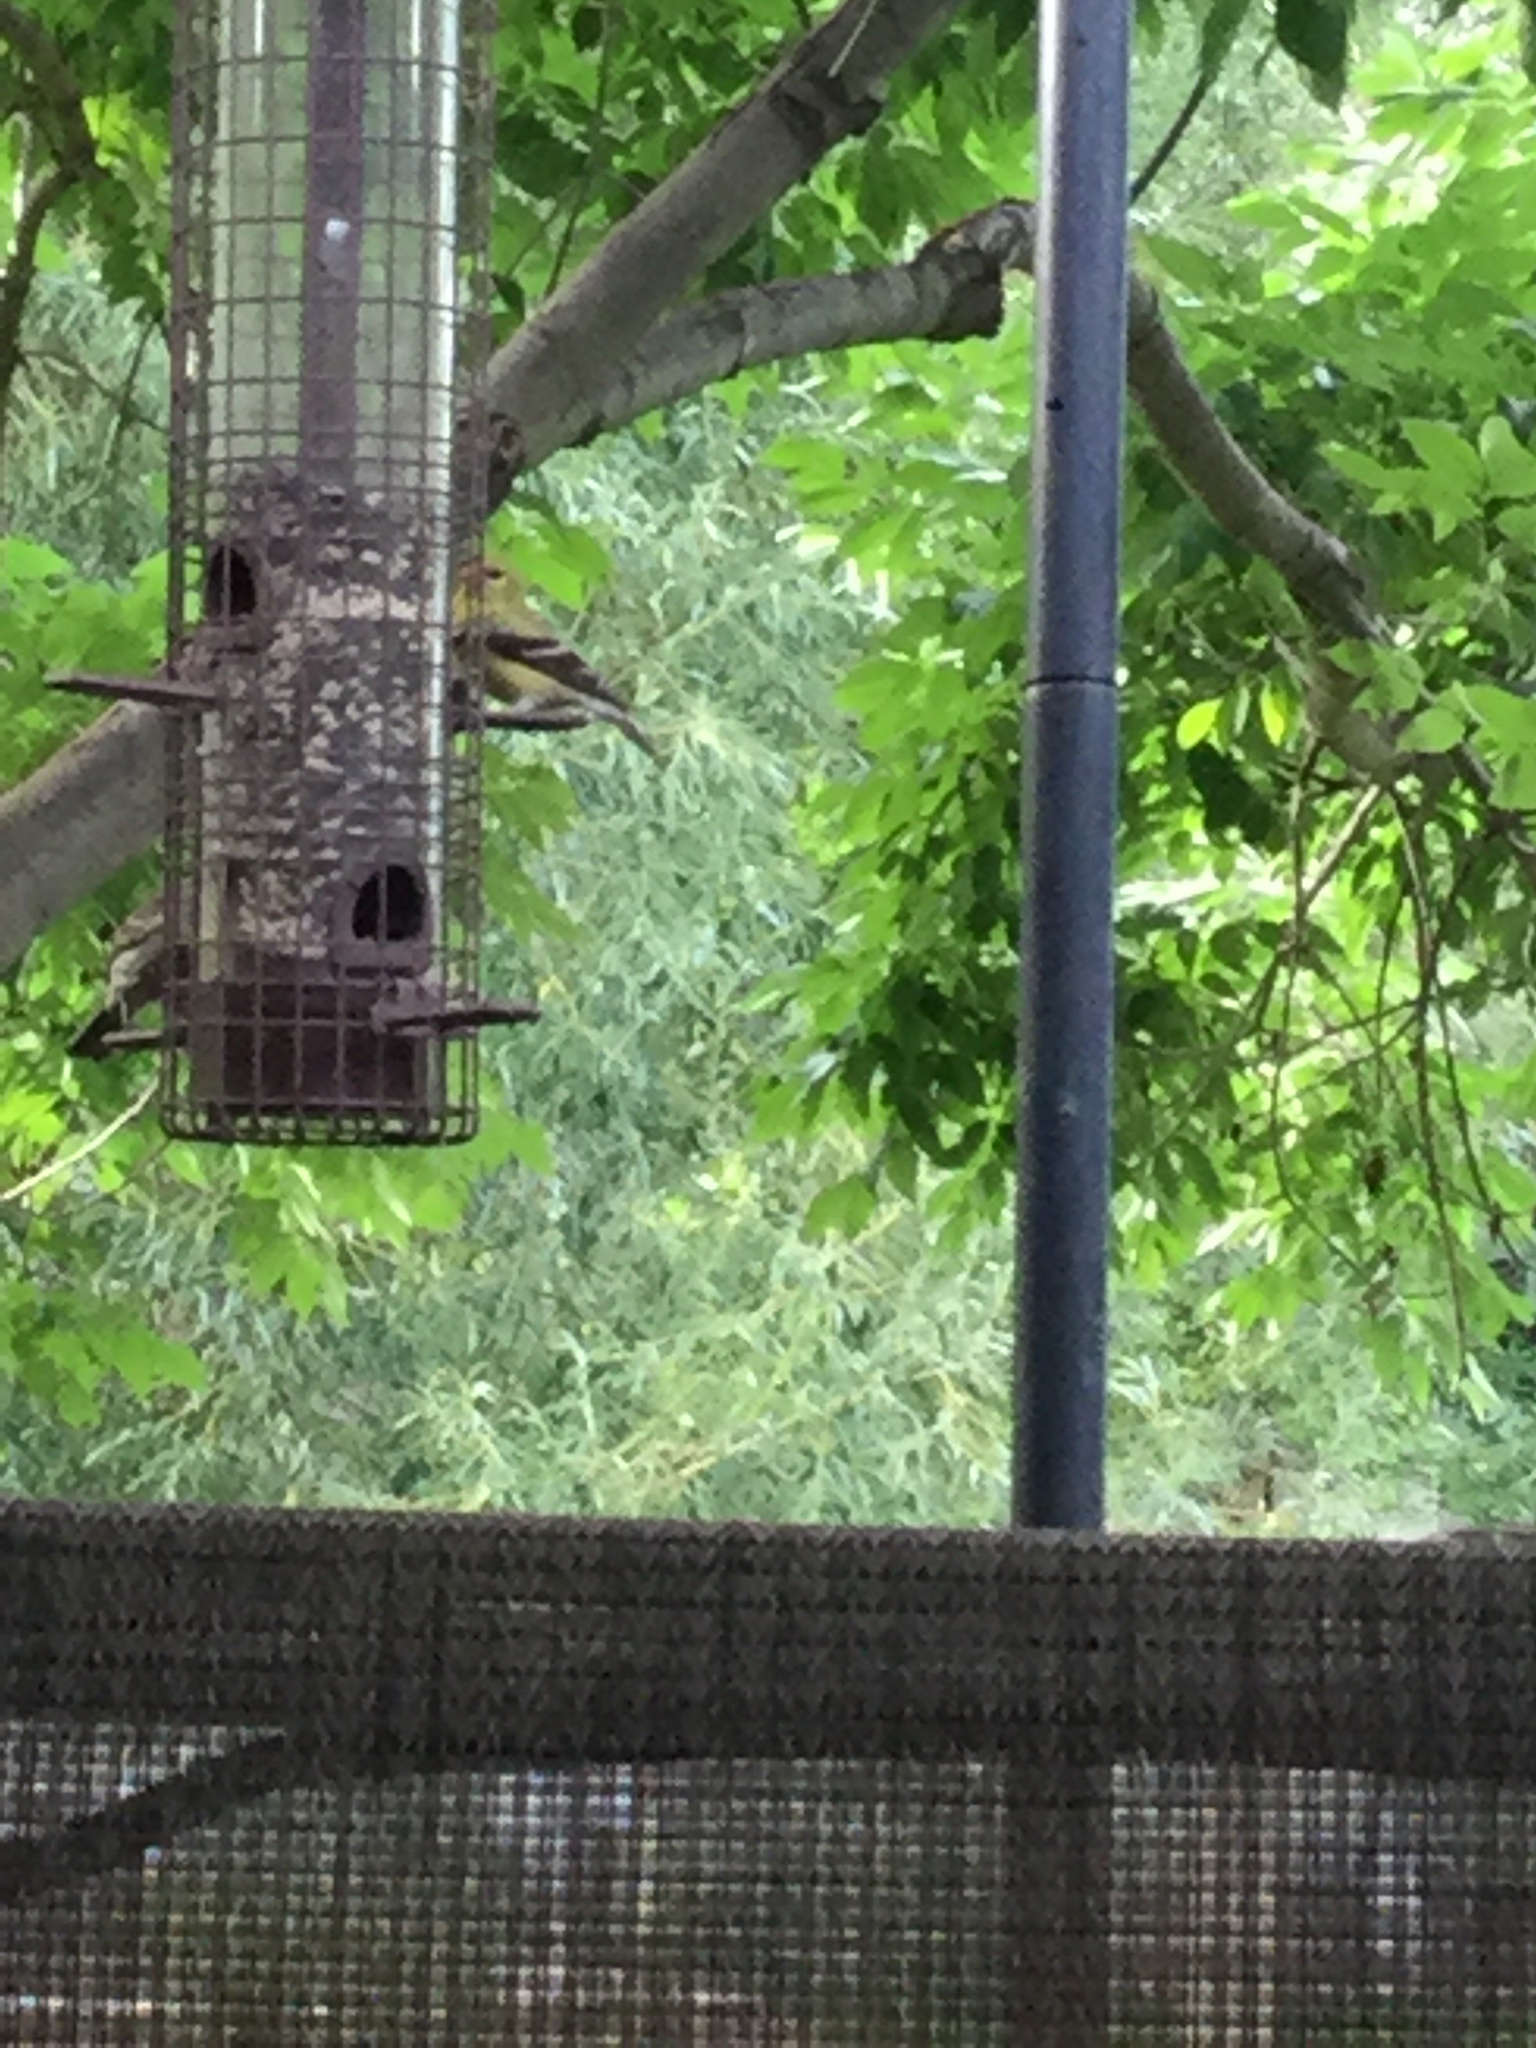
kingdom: Animalia
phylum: Chordata
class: Aves
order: Passeriformes
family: Fringillidae
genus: Spinus
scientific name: Spinus tristis
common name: American goldfinch
